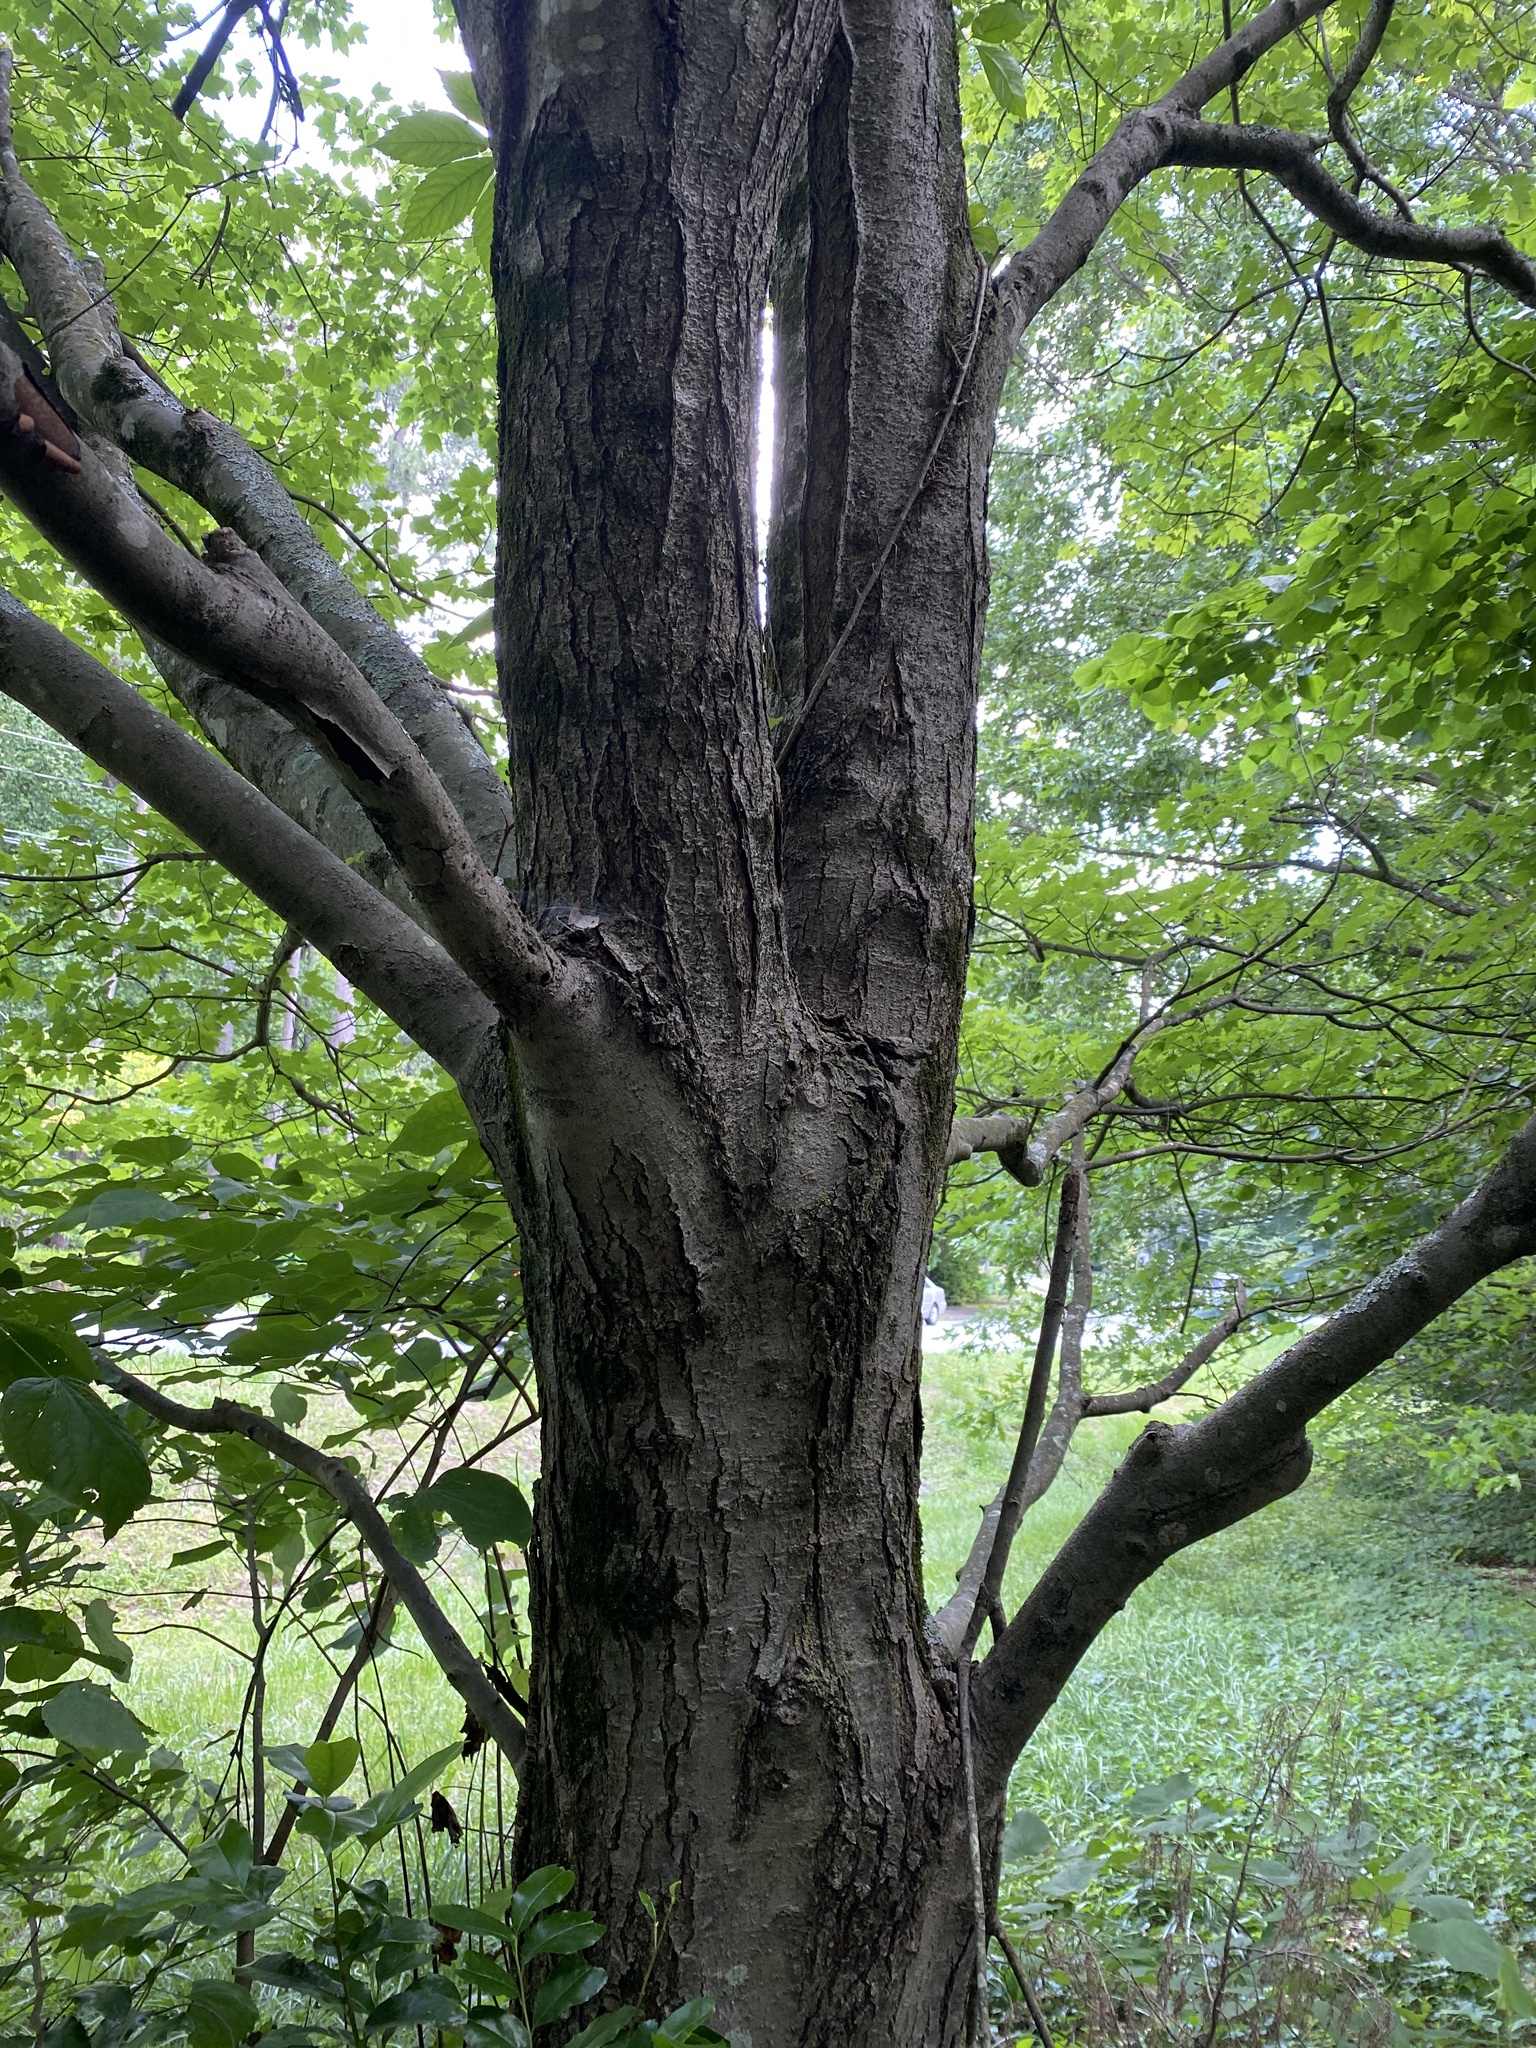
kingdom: Plantae
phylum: Tracheophyta
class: Magnoliopsida
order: Sapindales
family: Sapindaceae
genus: Acer
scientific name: Acer rubrum
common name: Red maple
